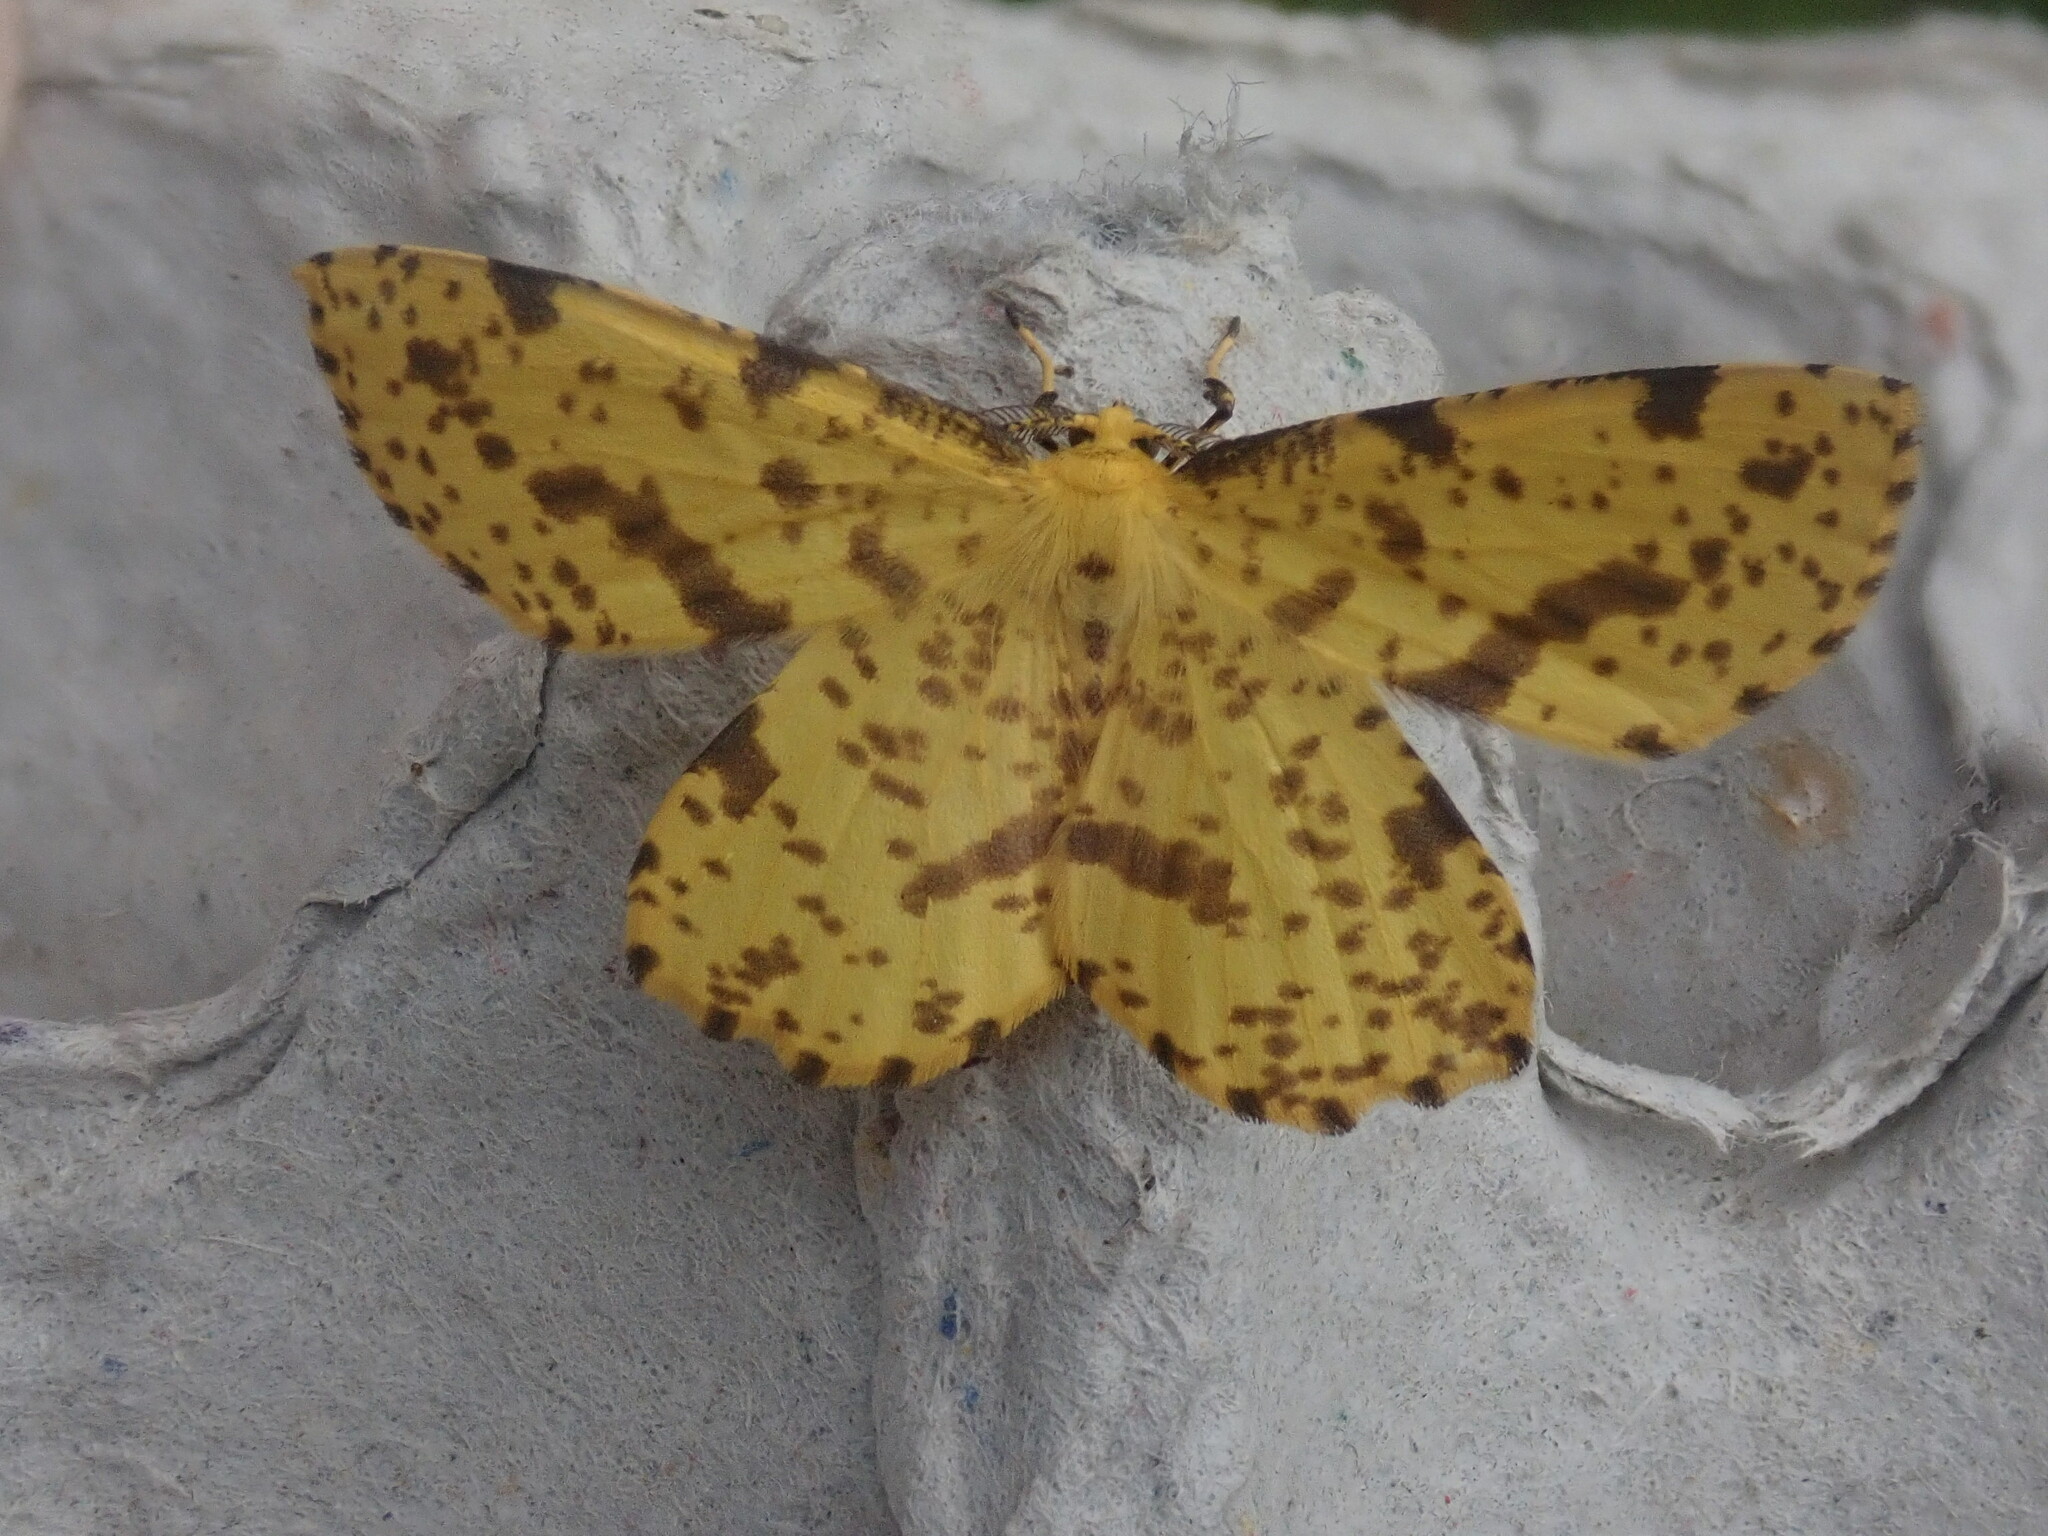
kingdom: Animalia
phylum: Arthropoda
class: Insecta
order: Lepidoptera
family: Geometridae
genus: Xanthotype
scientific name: Xanthotype
